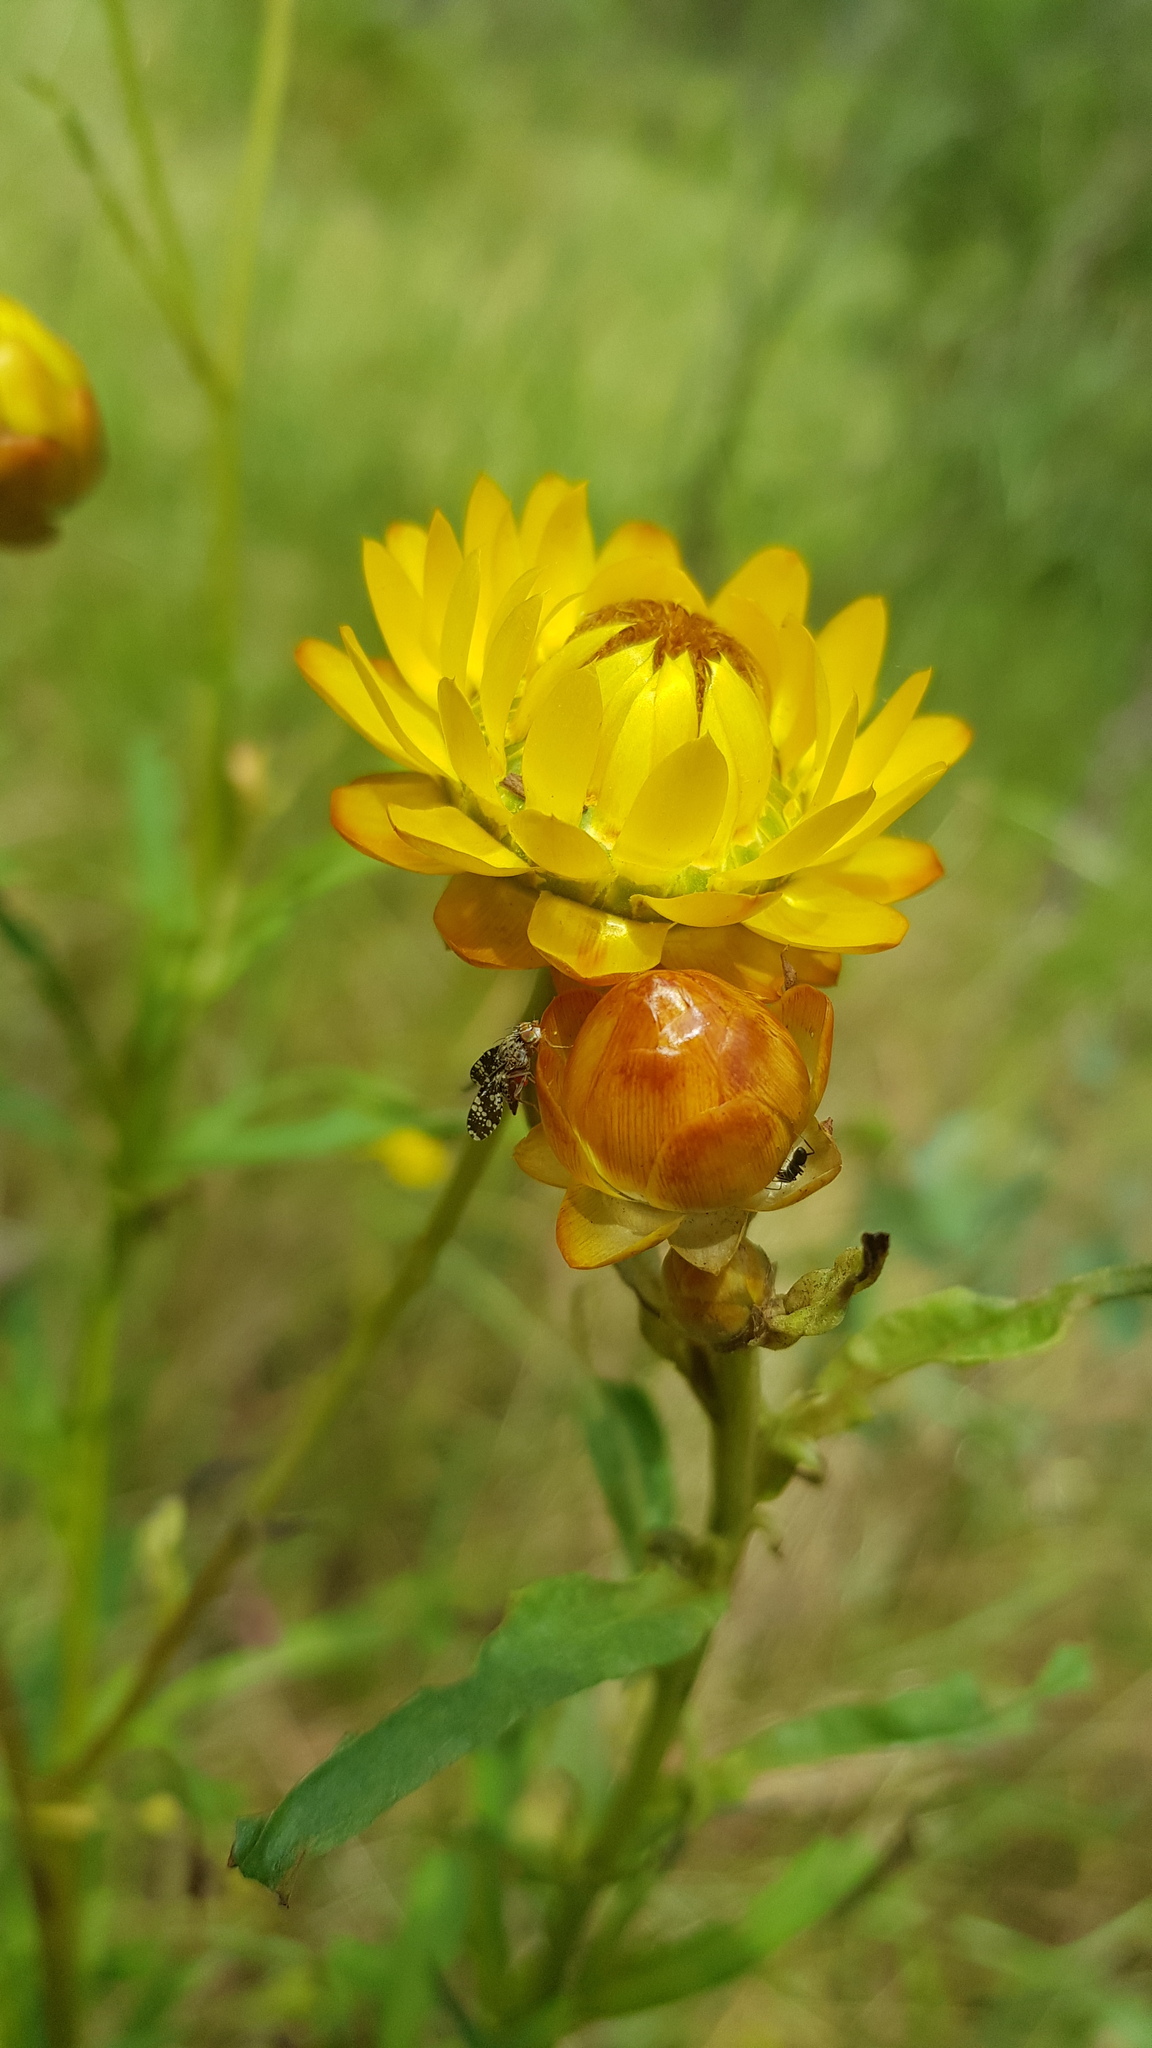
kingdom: Animalia
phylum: Arthropoda
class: Insecta
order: Diptera
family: Tephritidae
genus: Austrotephritis
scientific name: Austrotephritis
